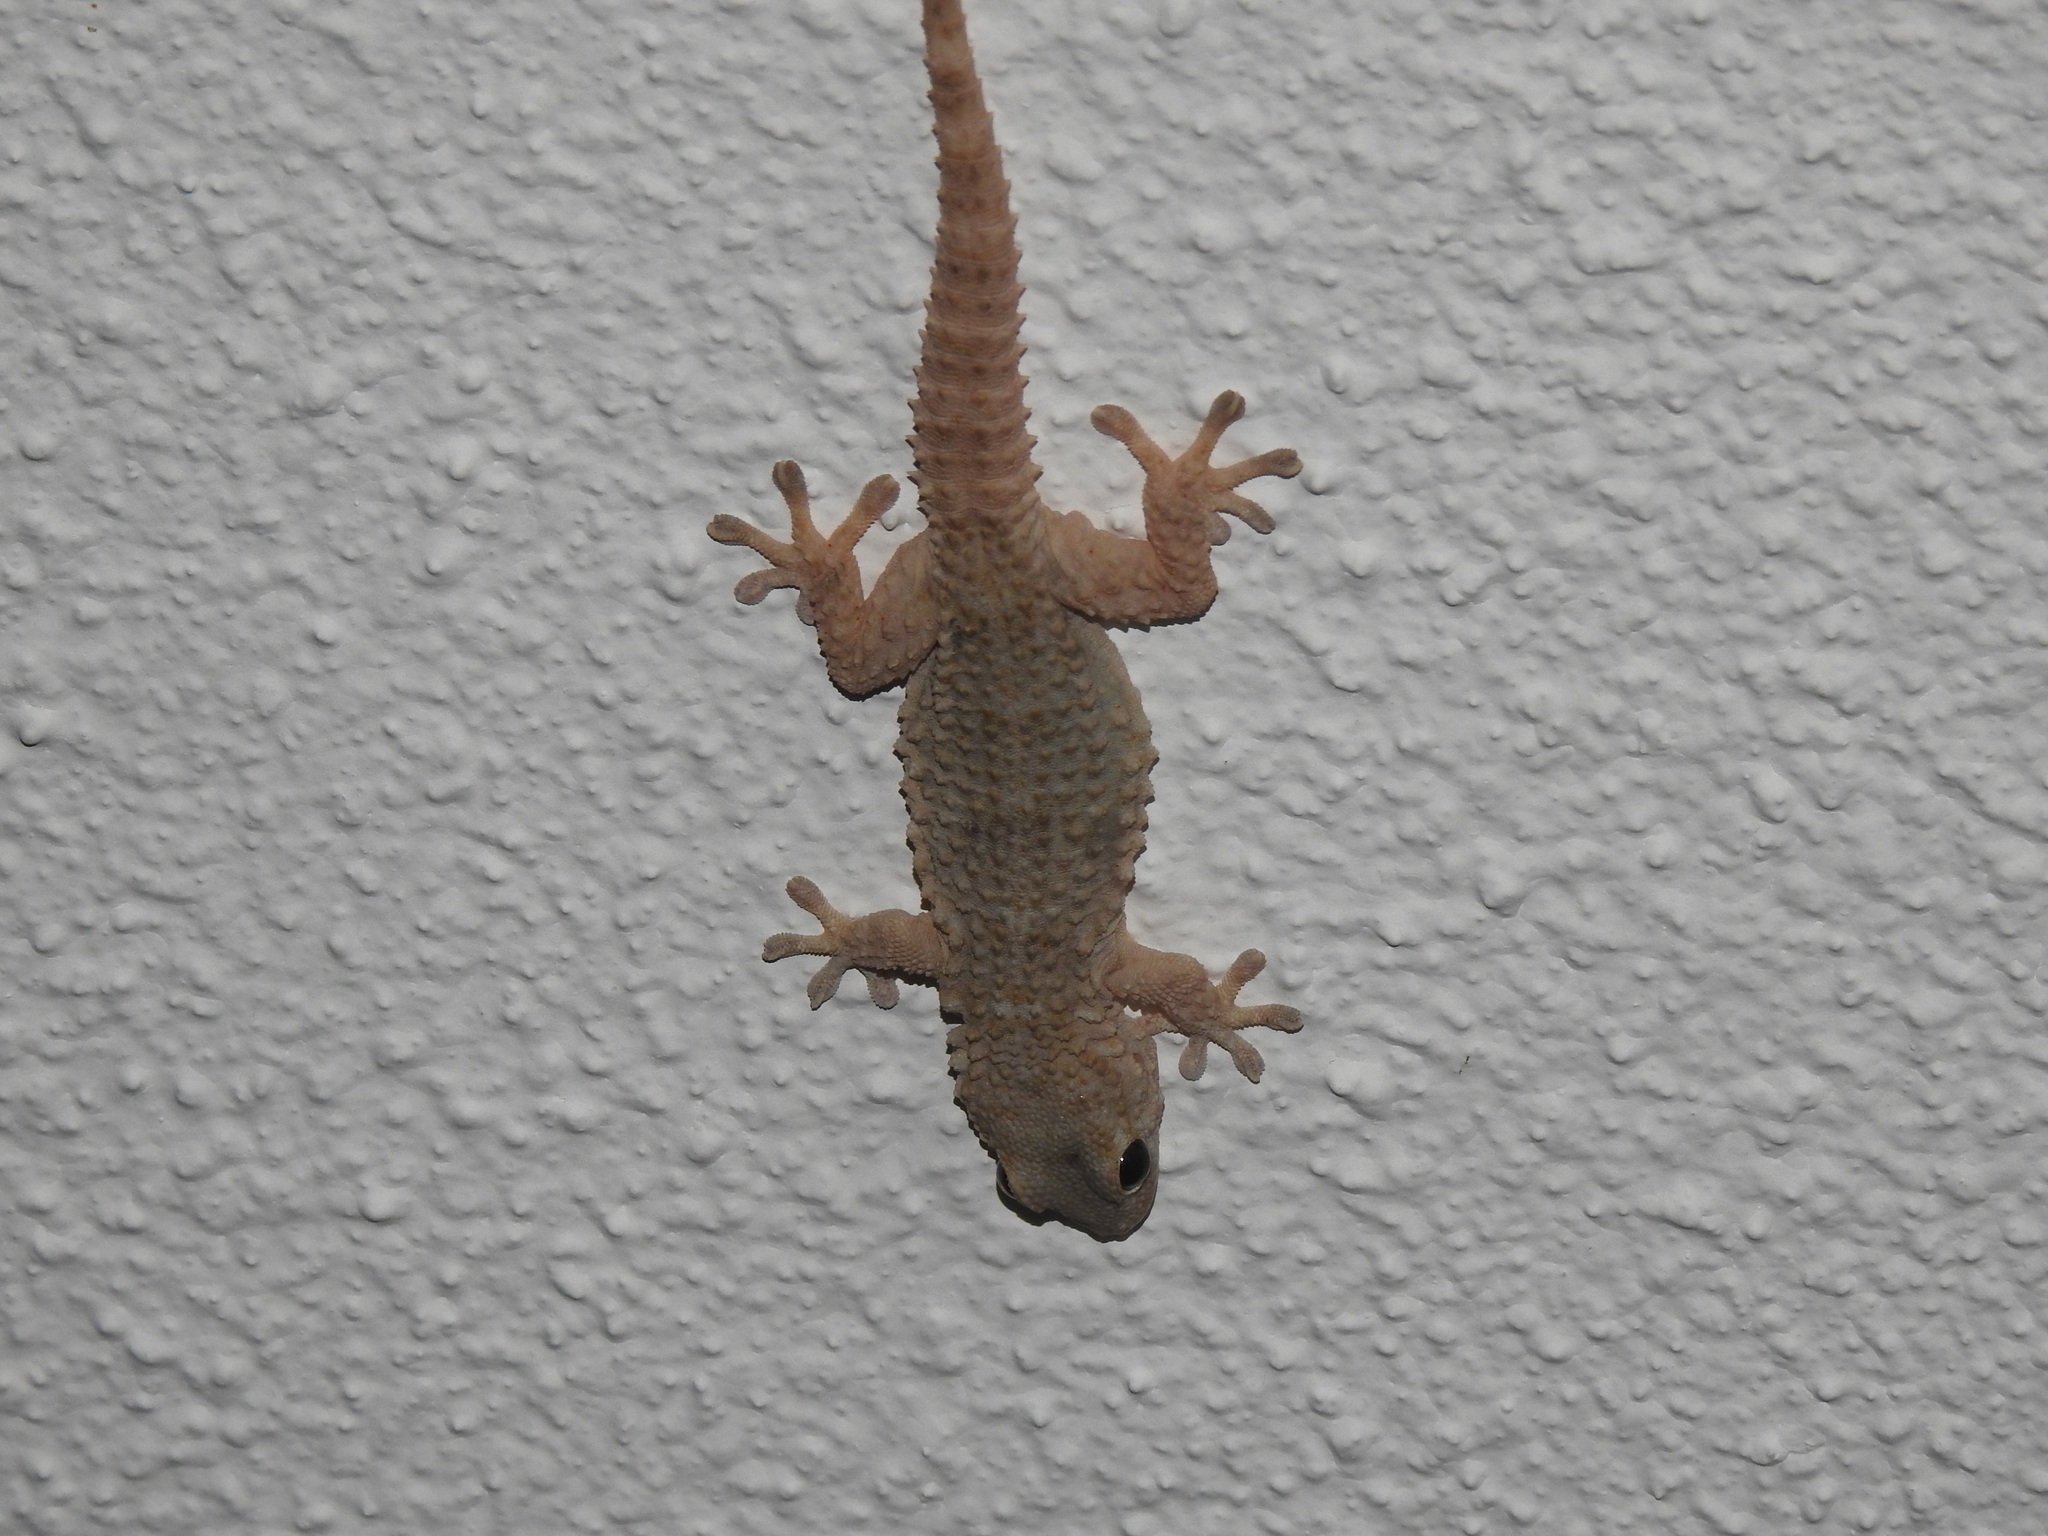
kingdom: Animalia
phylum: Chordata
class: Squamata
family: Phyllodactylidae
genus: Tarentola
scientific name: Tarentola mauritanica
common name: Moorish gecko
